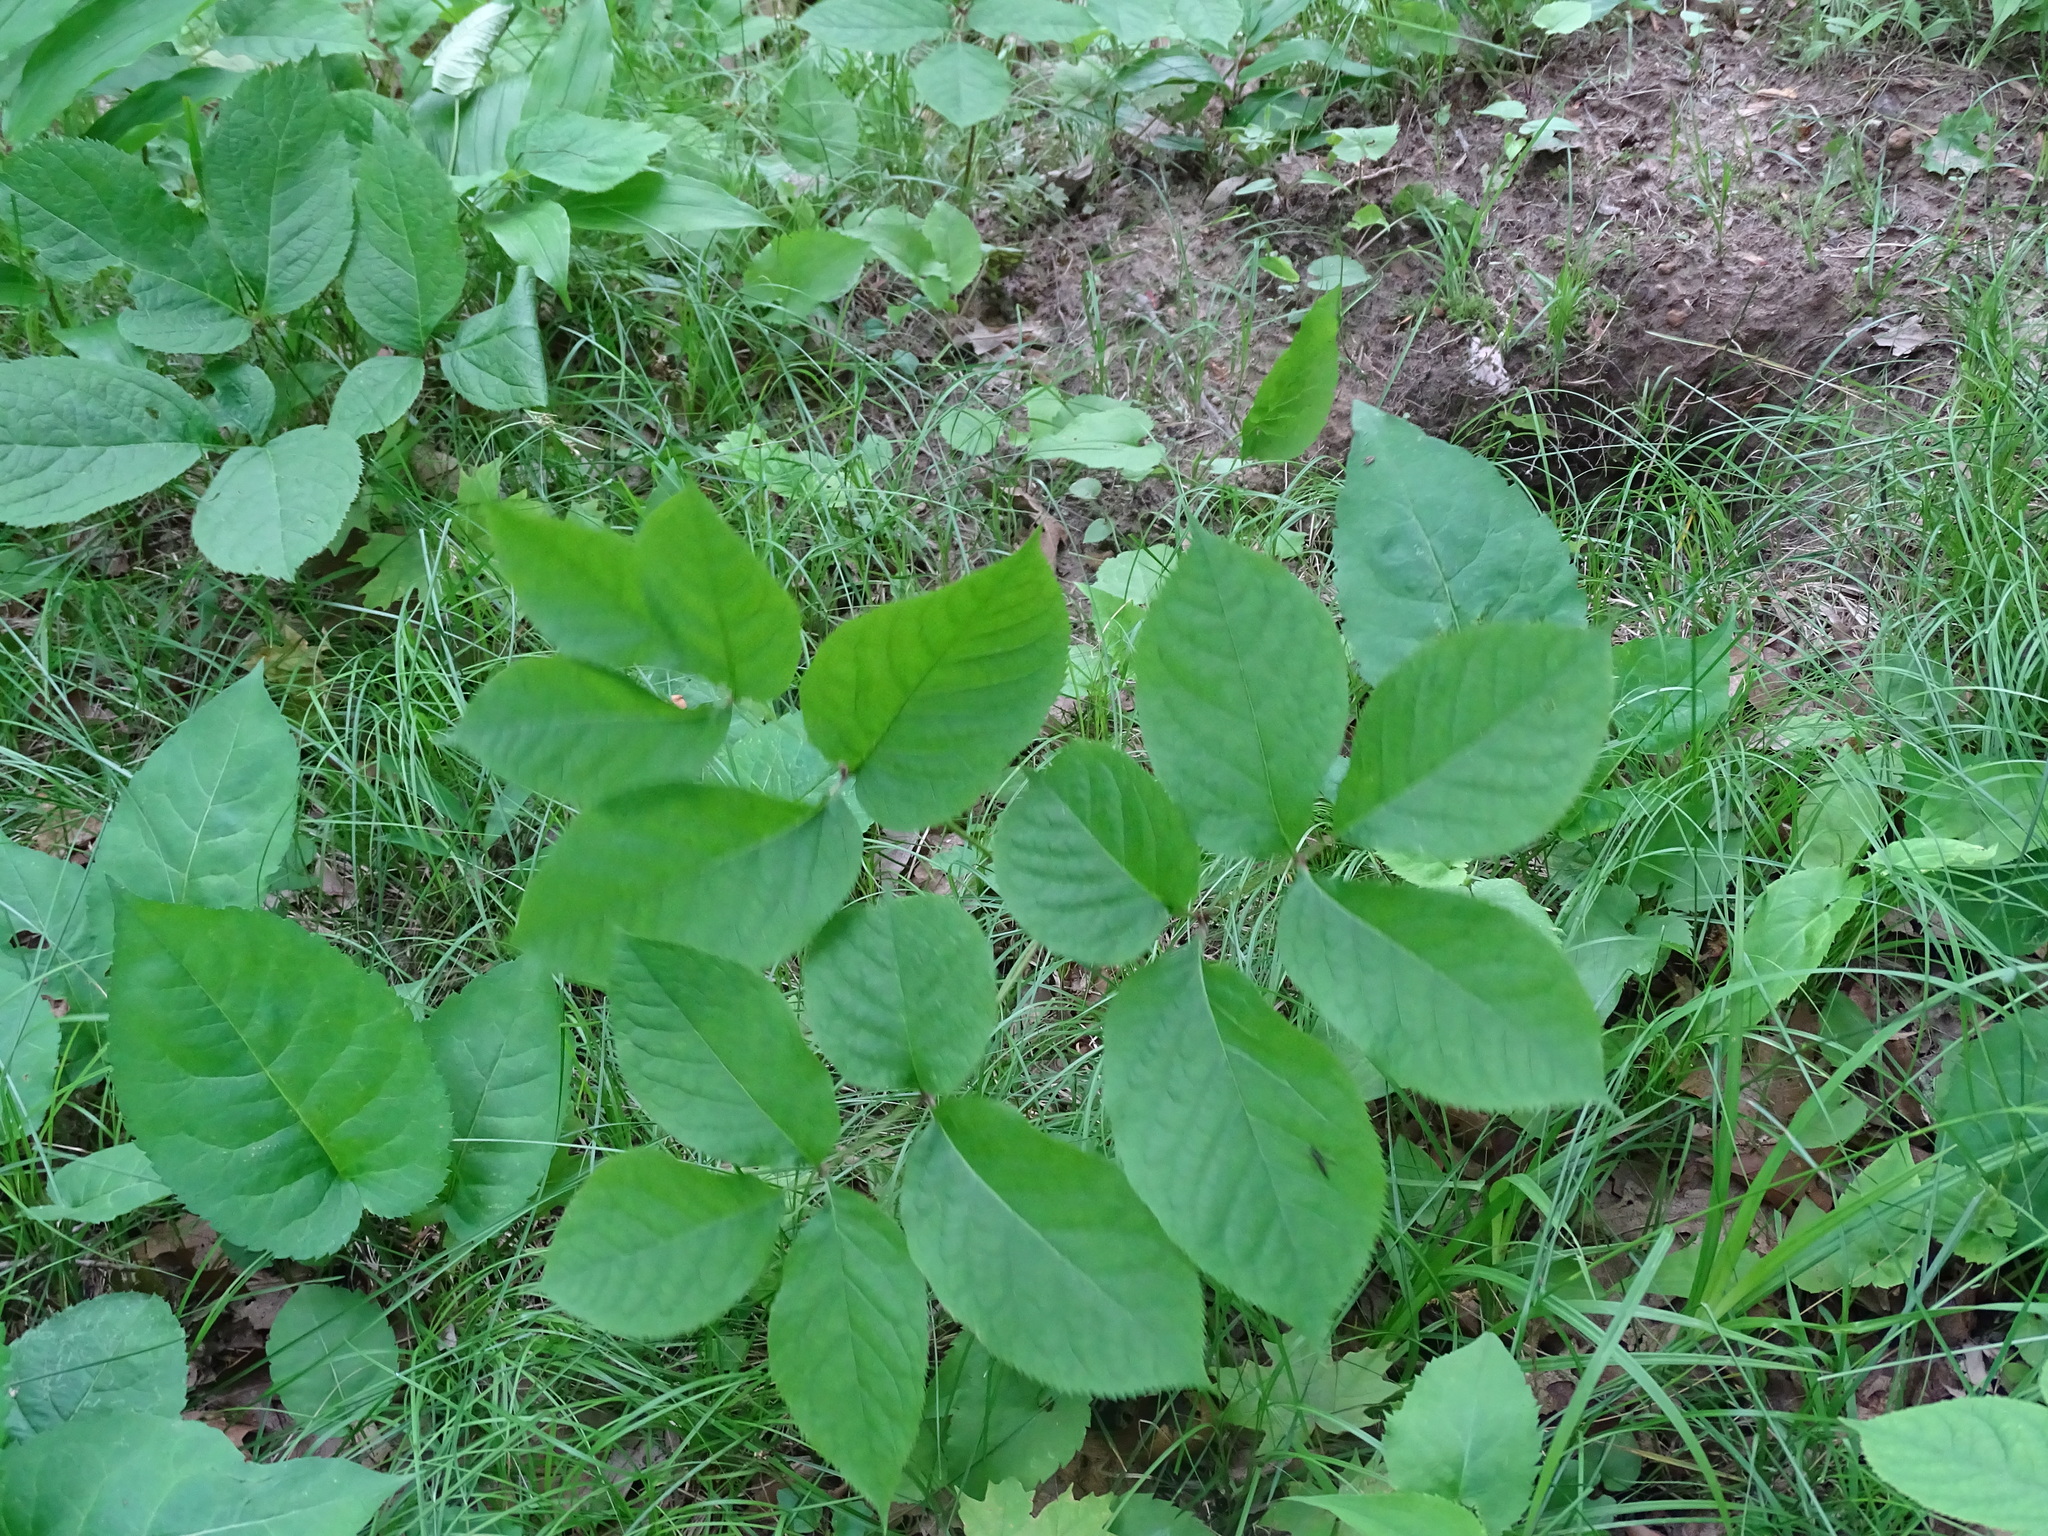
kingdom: Plantae
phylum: Tracheophyta
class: Magnoliopsida
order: Apiales
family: Araliaceae
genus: Aralia
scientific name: Aralia nudicaulis
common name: Wild sarsaparilla
